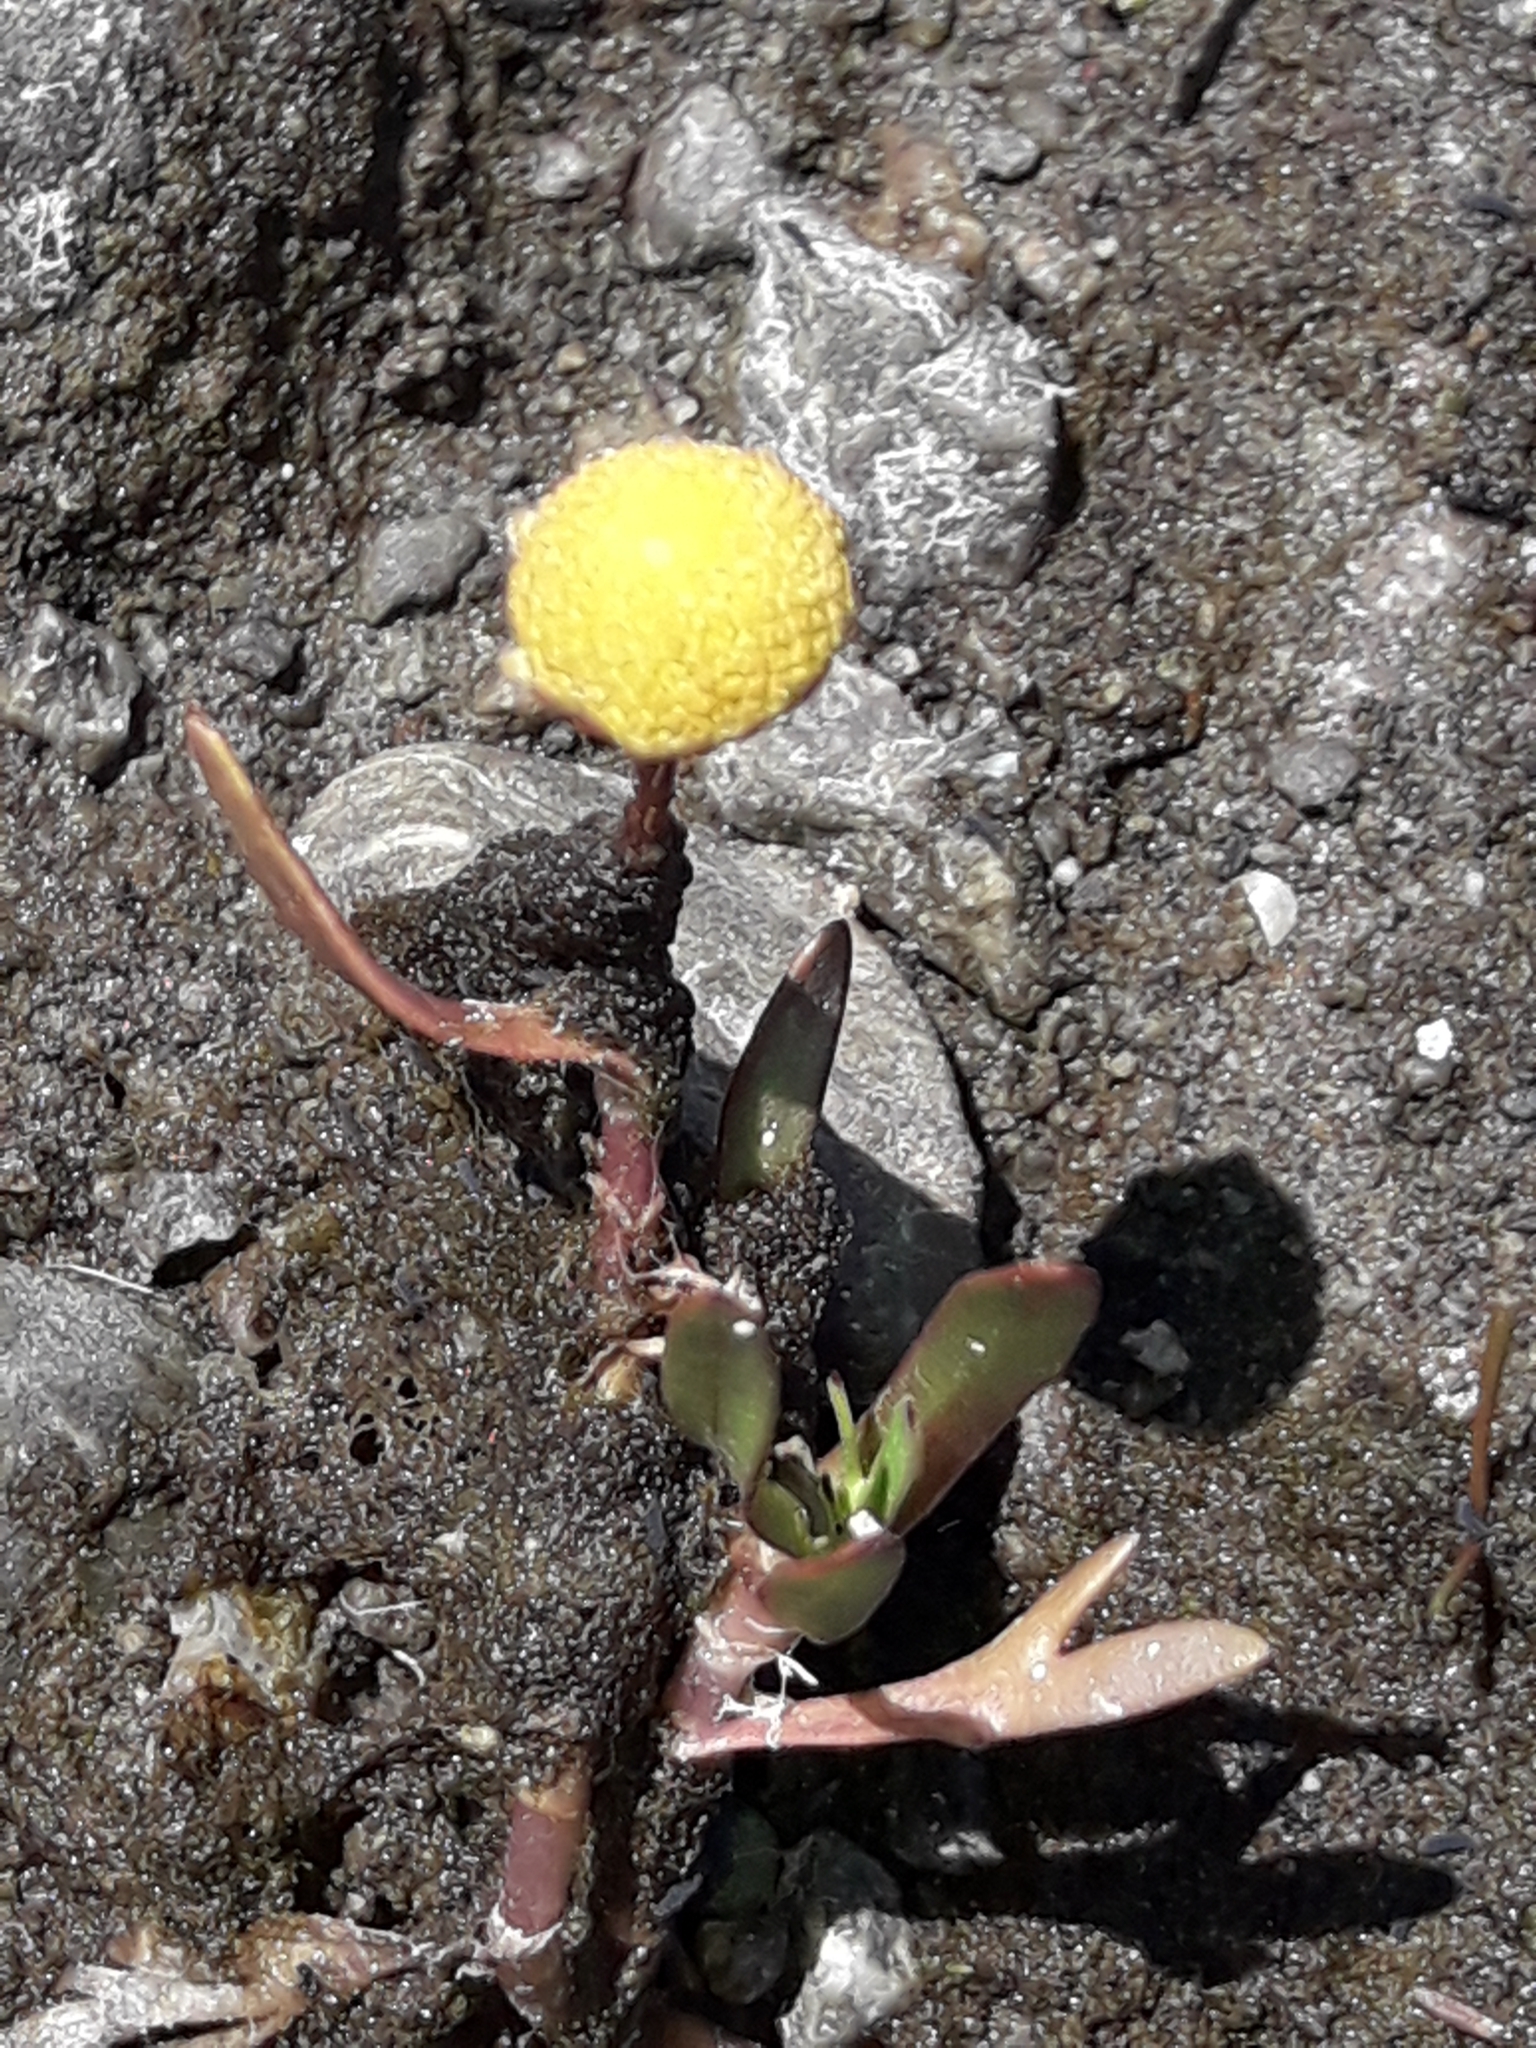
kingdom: Plantae
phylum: Tracheophyta
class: Magnoliopsida
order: Asterales
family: Asteraceae
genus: Cotula
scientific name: Cotula coronopifolia
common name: Buttonweed
